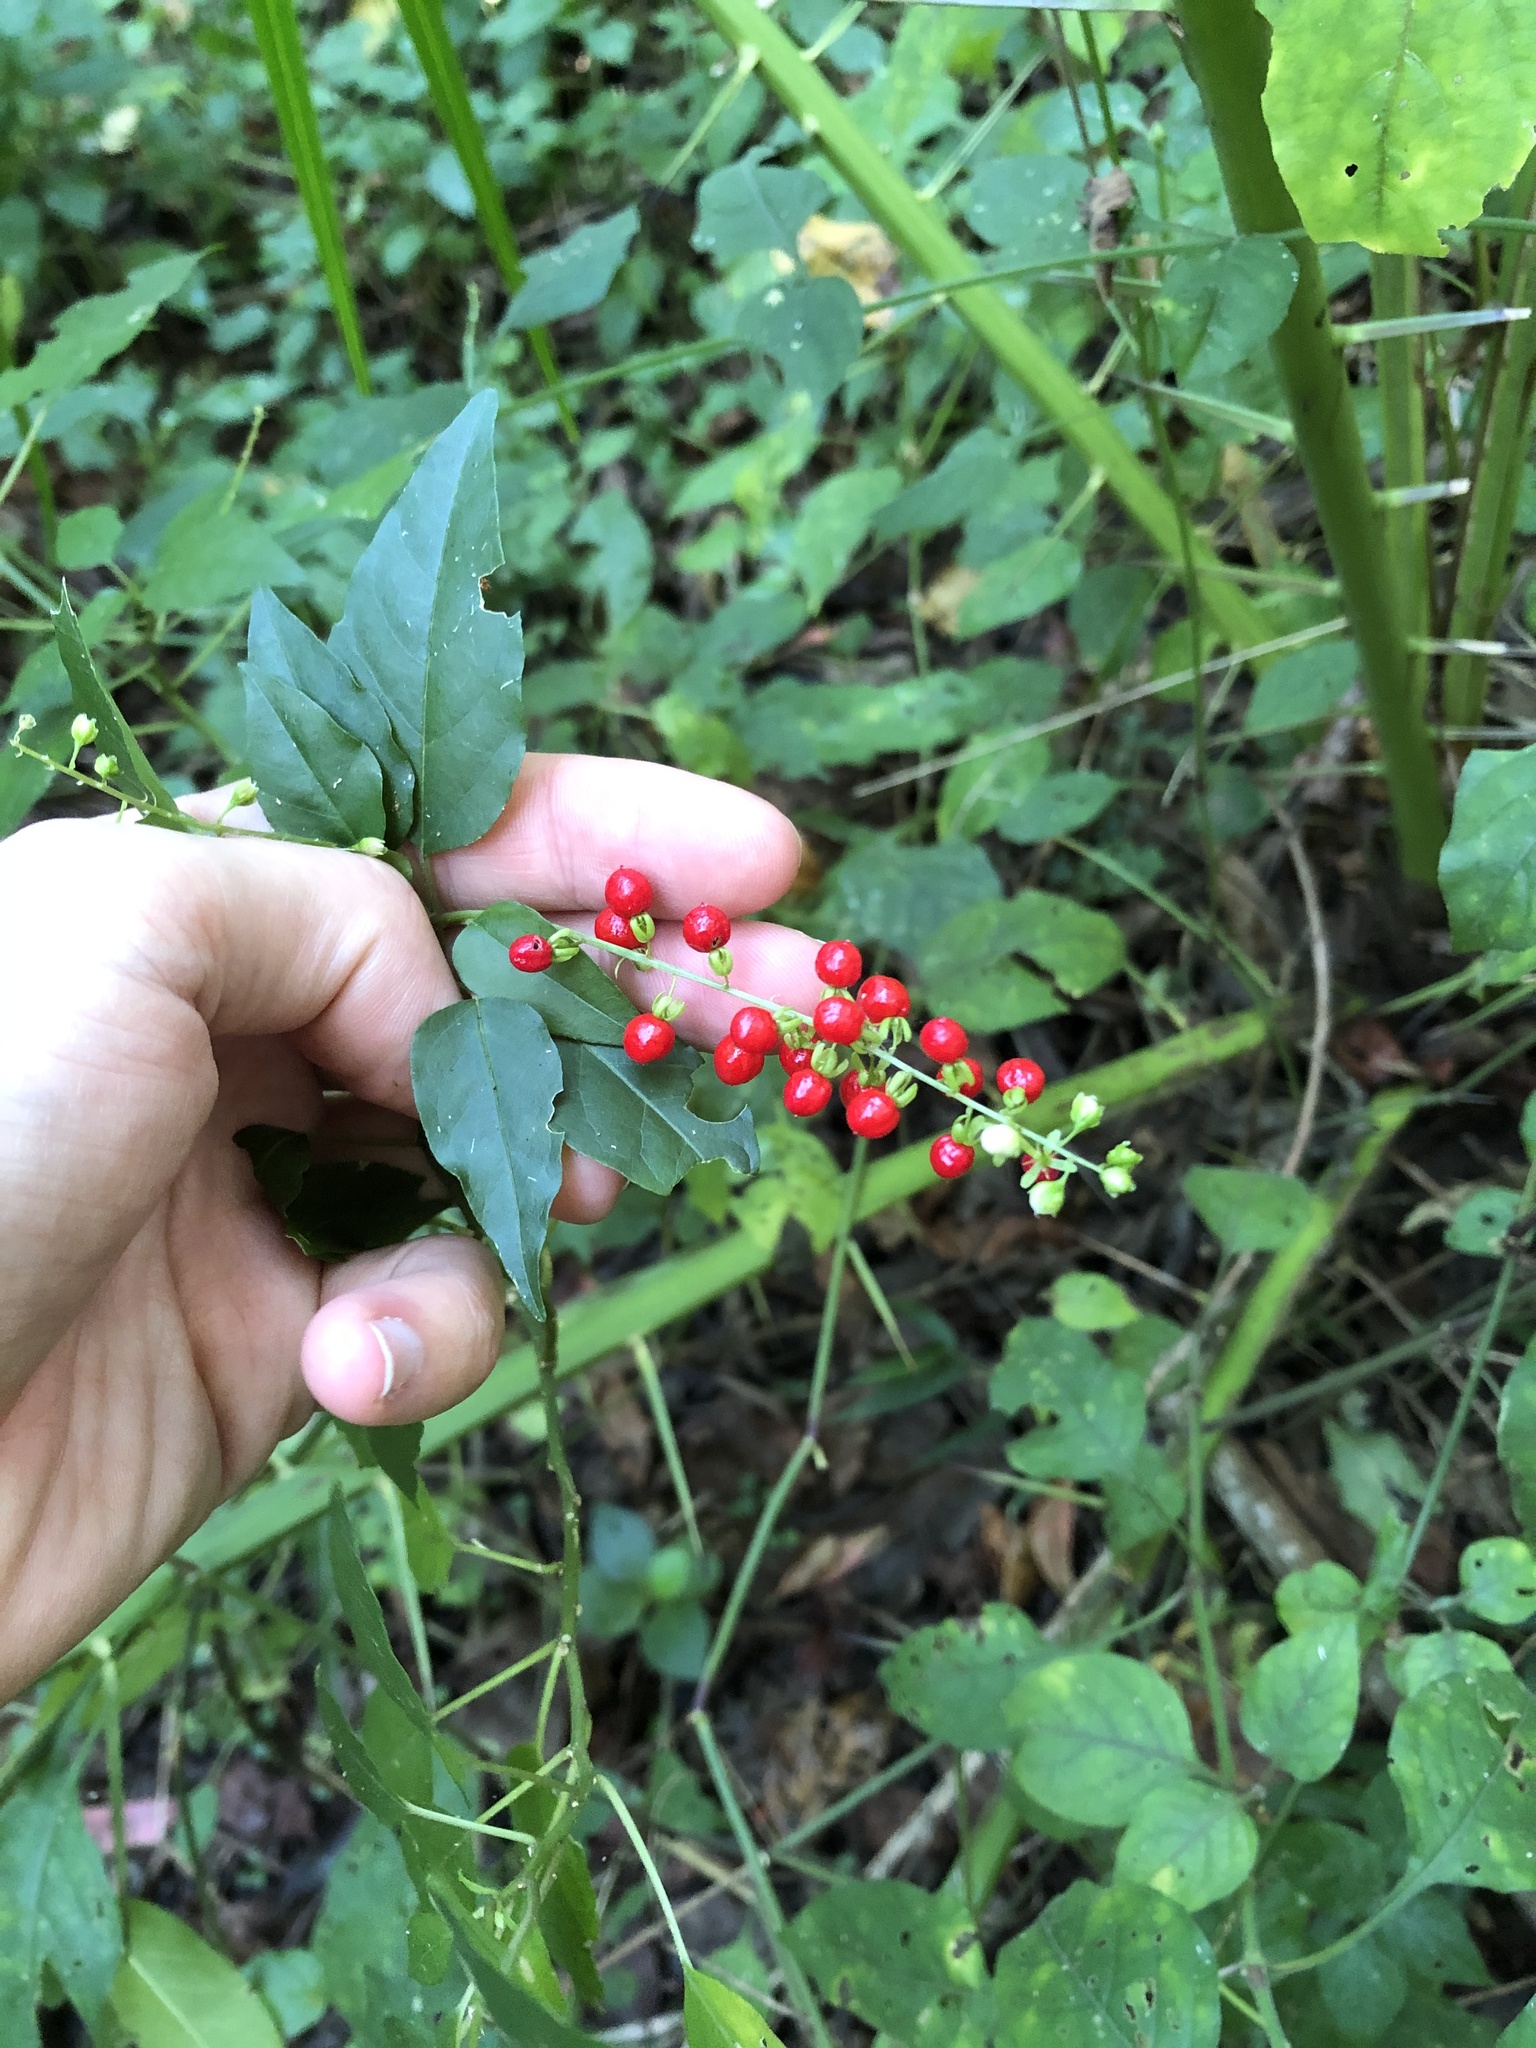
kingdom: Plantae
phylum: Tracheophyta
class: Magnoliopsida
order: Caryophyllales
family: Phytolaccaceae
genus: Rivina
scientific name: Rivina humilis
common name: Rougeplant
